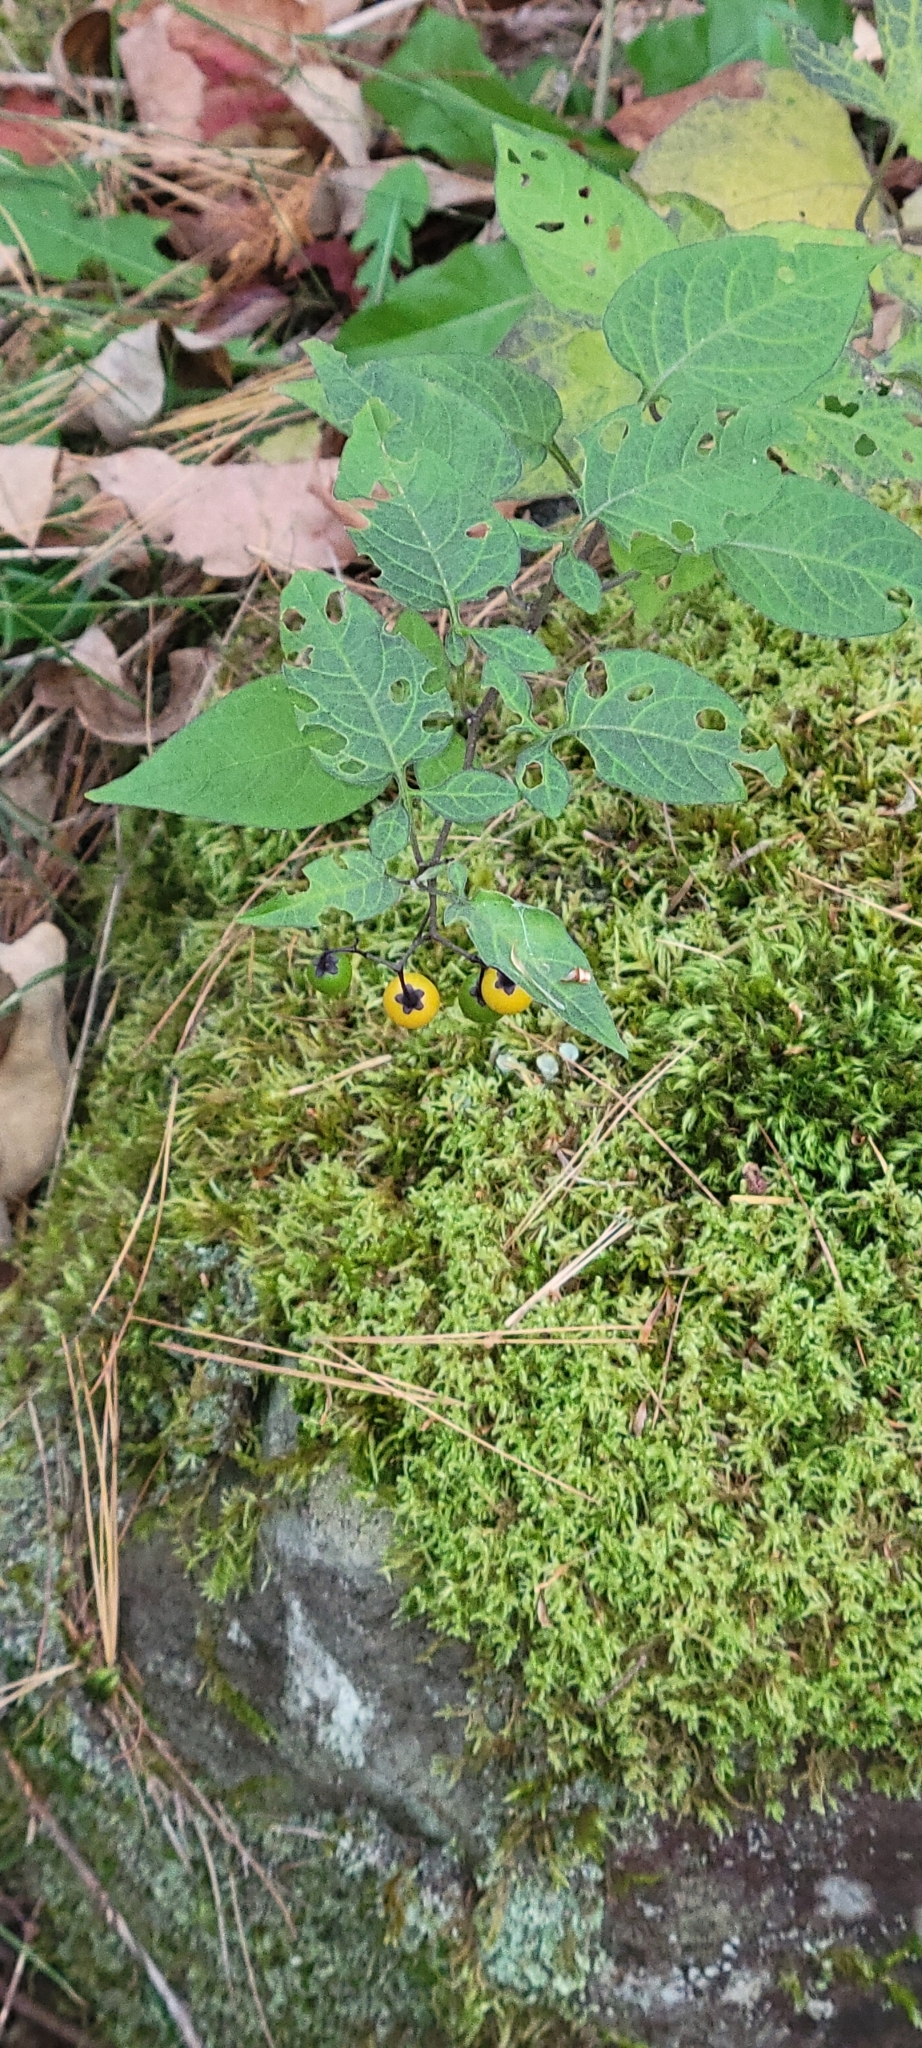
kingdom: Plantae
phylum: Tracheophyta
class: Magnoliopsida
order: Solanales
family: Solanaceae
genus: Solanum
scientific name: Solanum dulcamara
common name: Climbing nightshade
